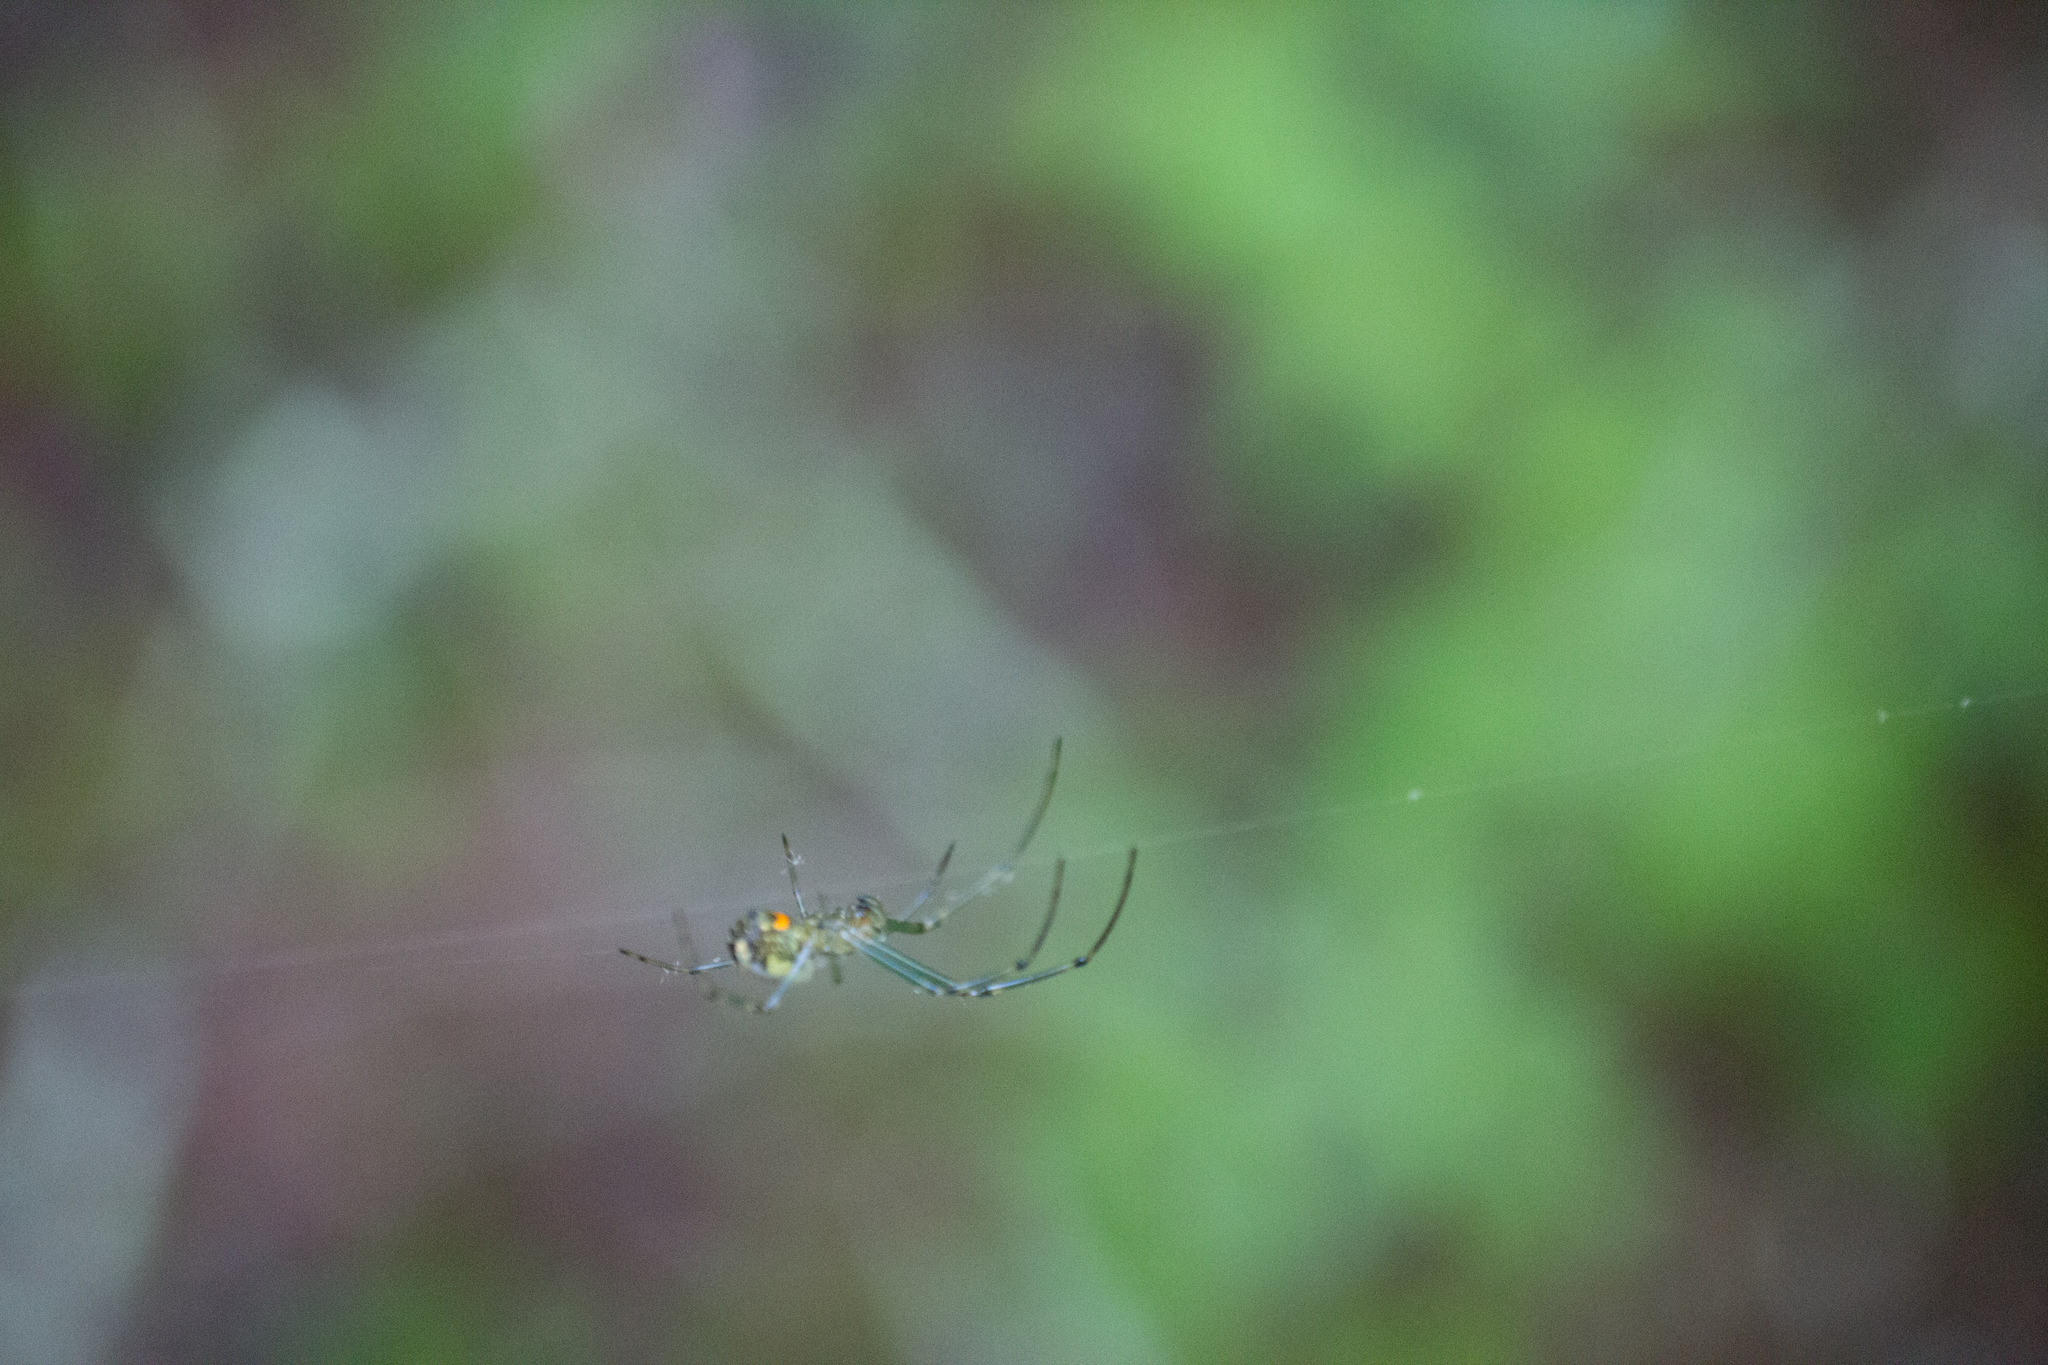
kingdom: Animalia
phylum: Arthropoda
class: Arachnida
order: Araneae
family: Tetragnathidae
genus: Leucauge
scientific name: Leucauge venusta
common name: Longjawed orb weavers
